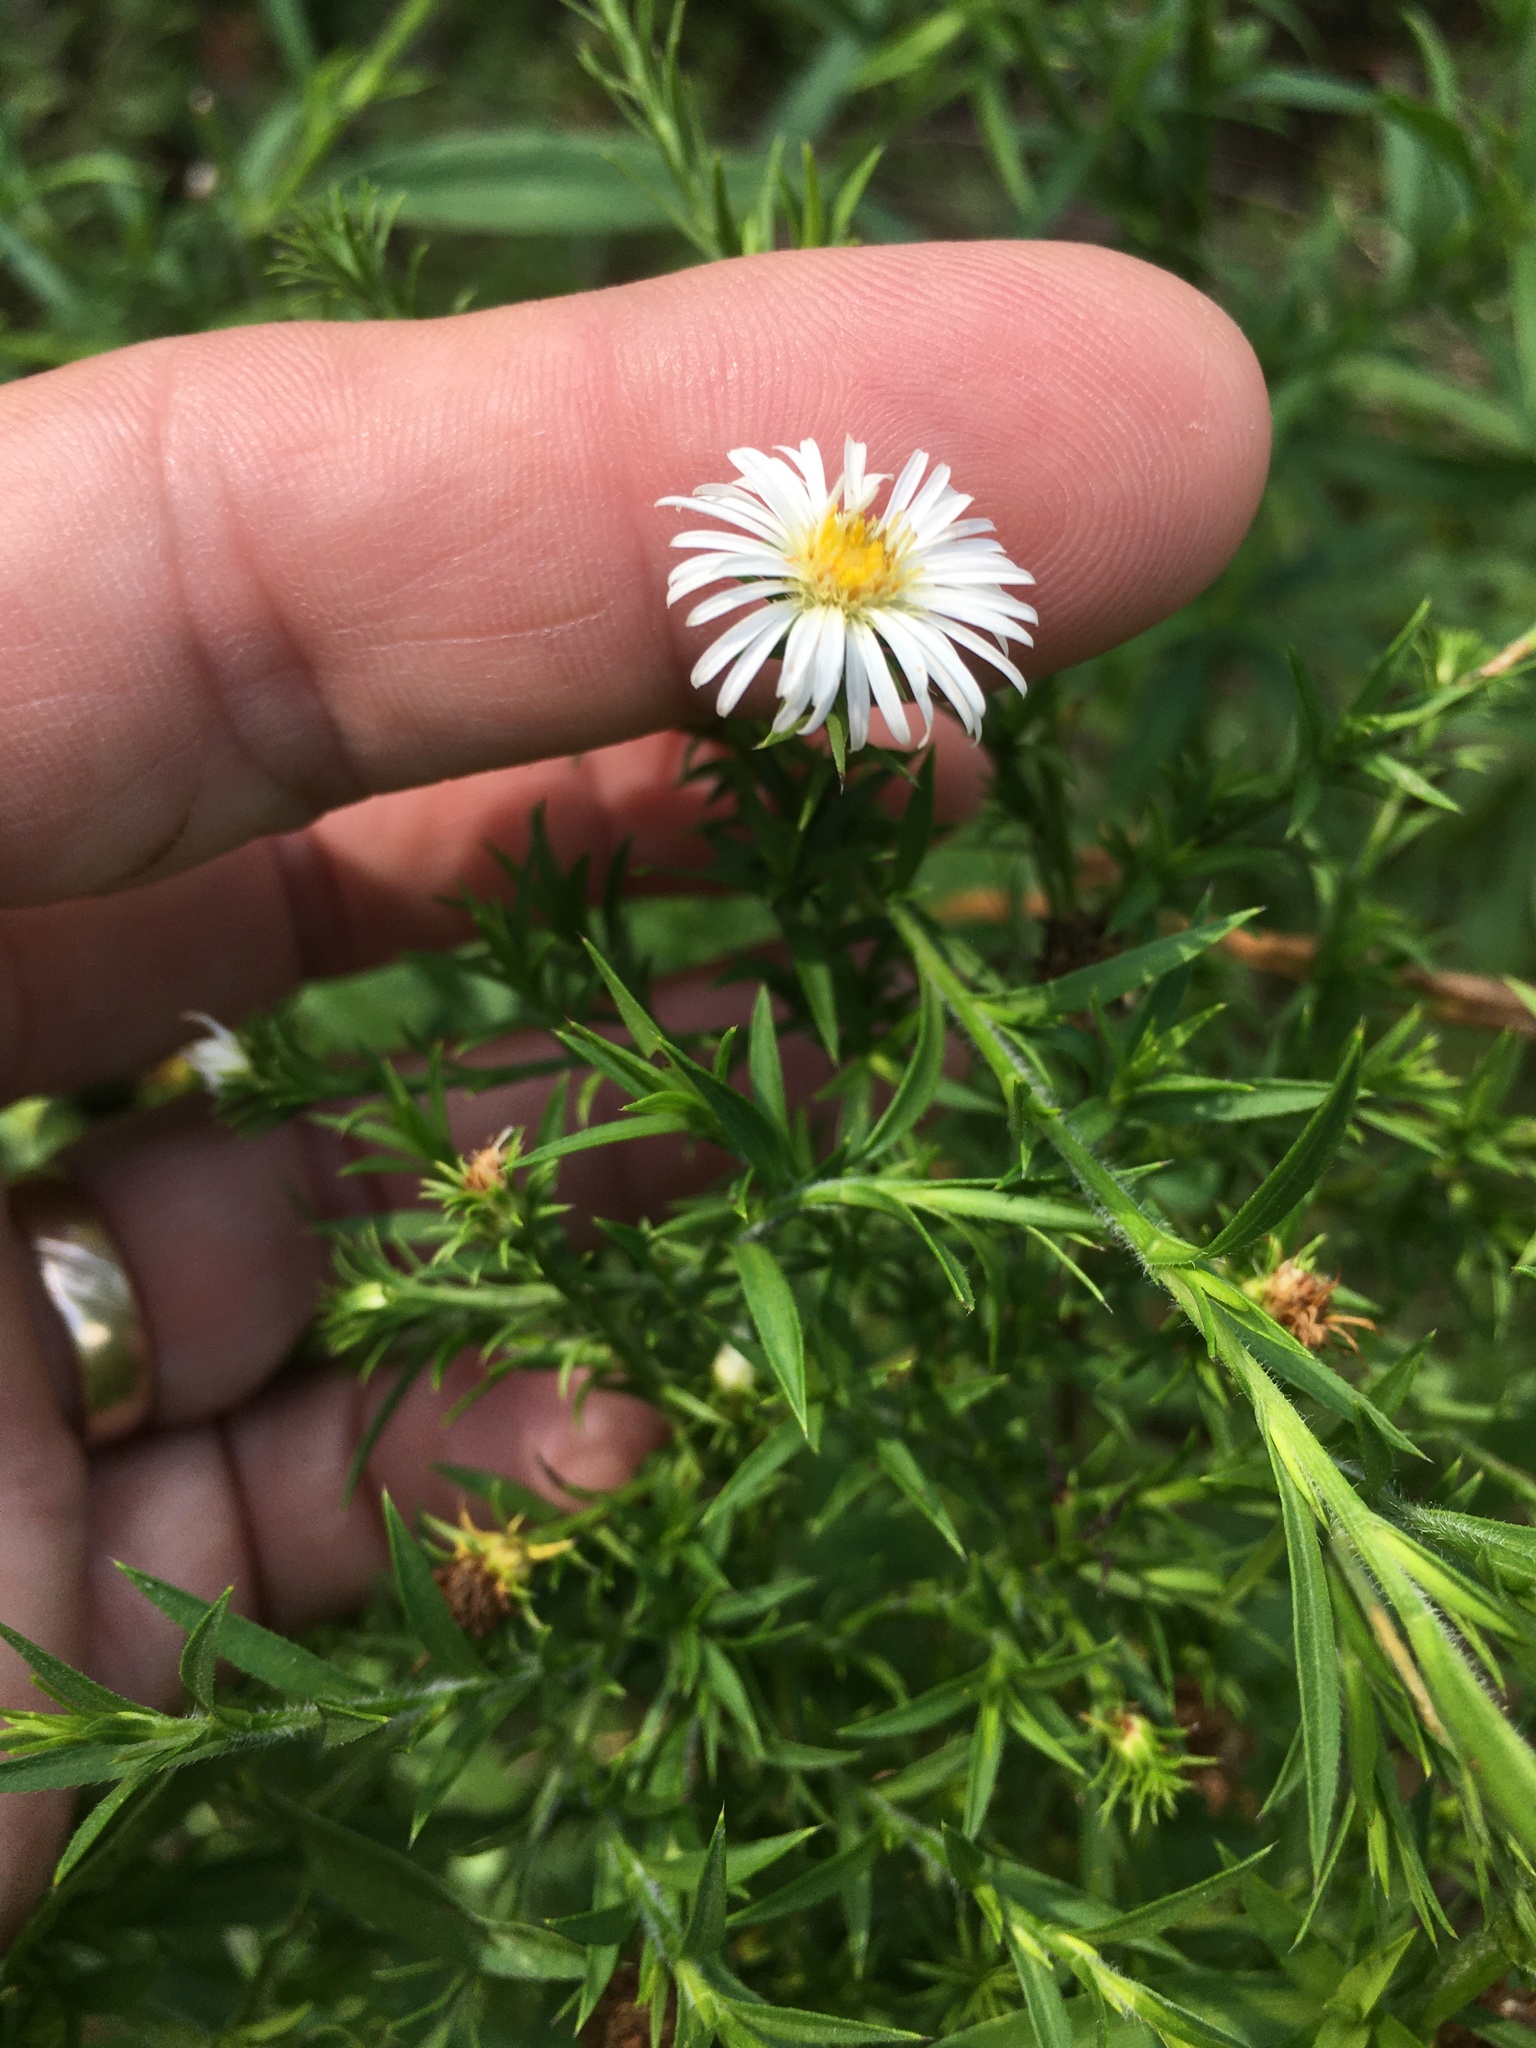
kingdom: Plantae
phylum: Tracheophyta
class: Magnoliopsida
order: Asterales
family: Asteraceae
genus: Symphyotrichum
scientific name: Symphyotrichum pilosum
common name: Awl aster
